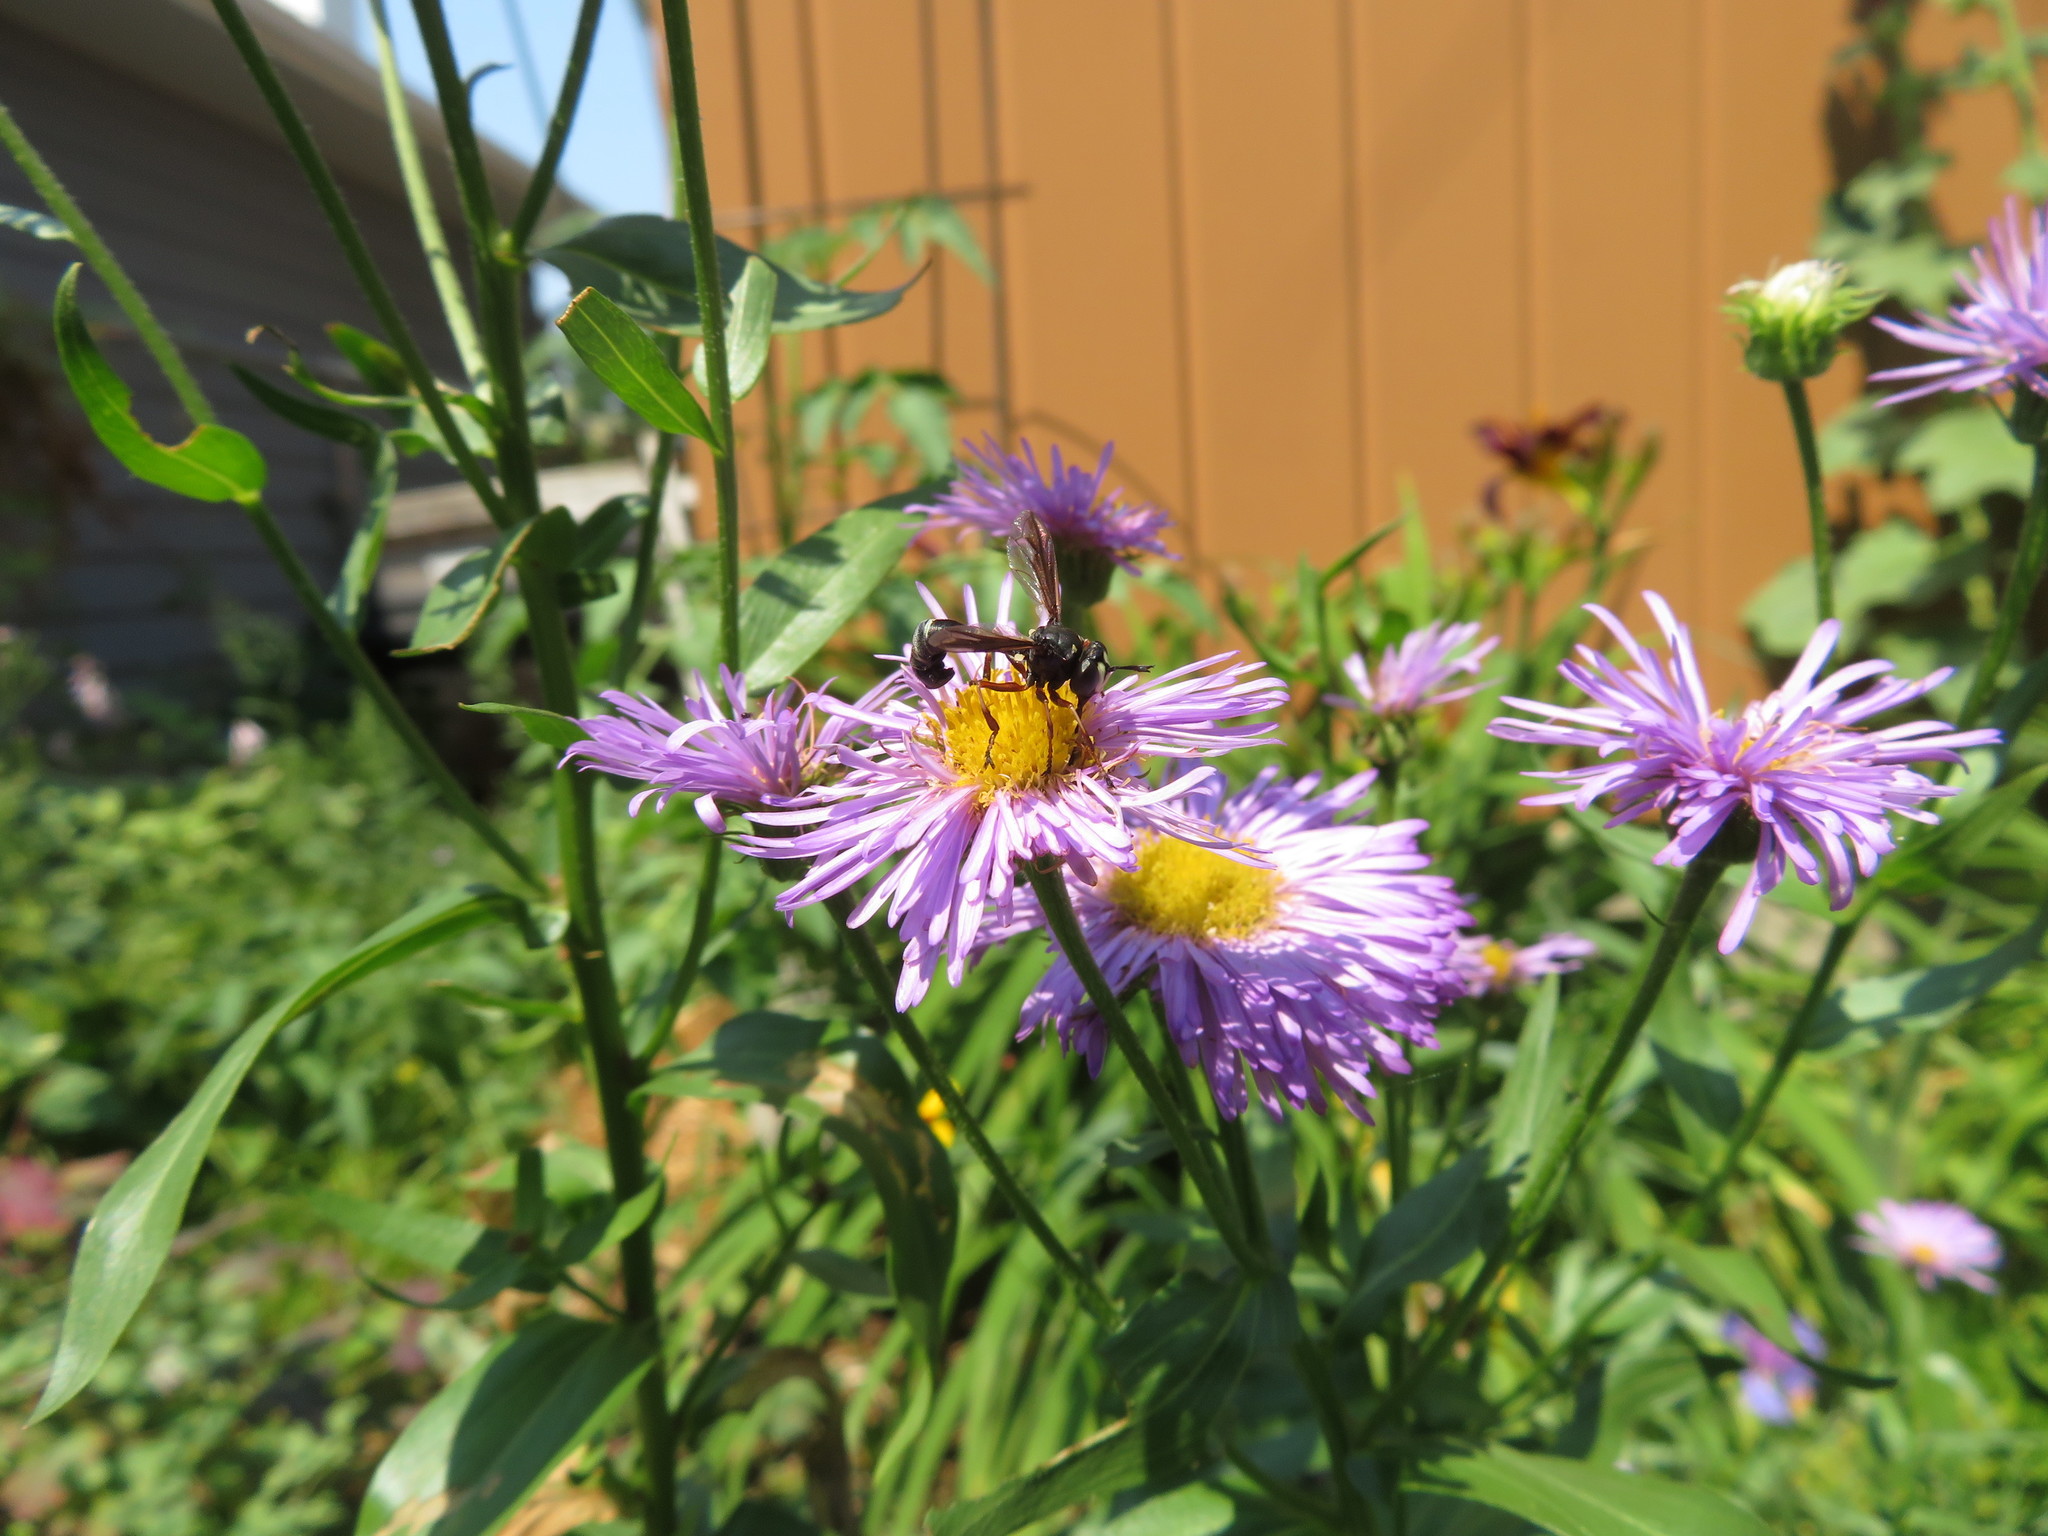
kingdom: Animalia
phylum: Arthropoda
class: Insecta
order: Diptera
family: Conopidae
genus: Physocephala
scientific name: Physocephala furcillata
